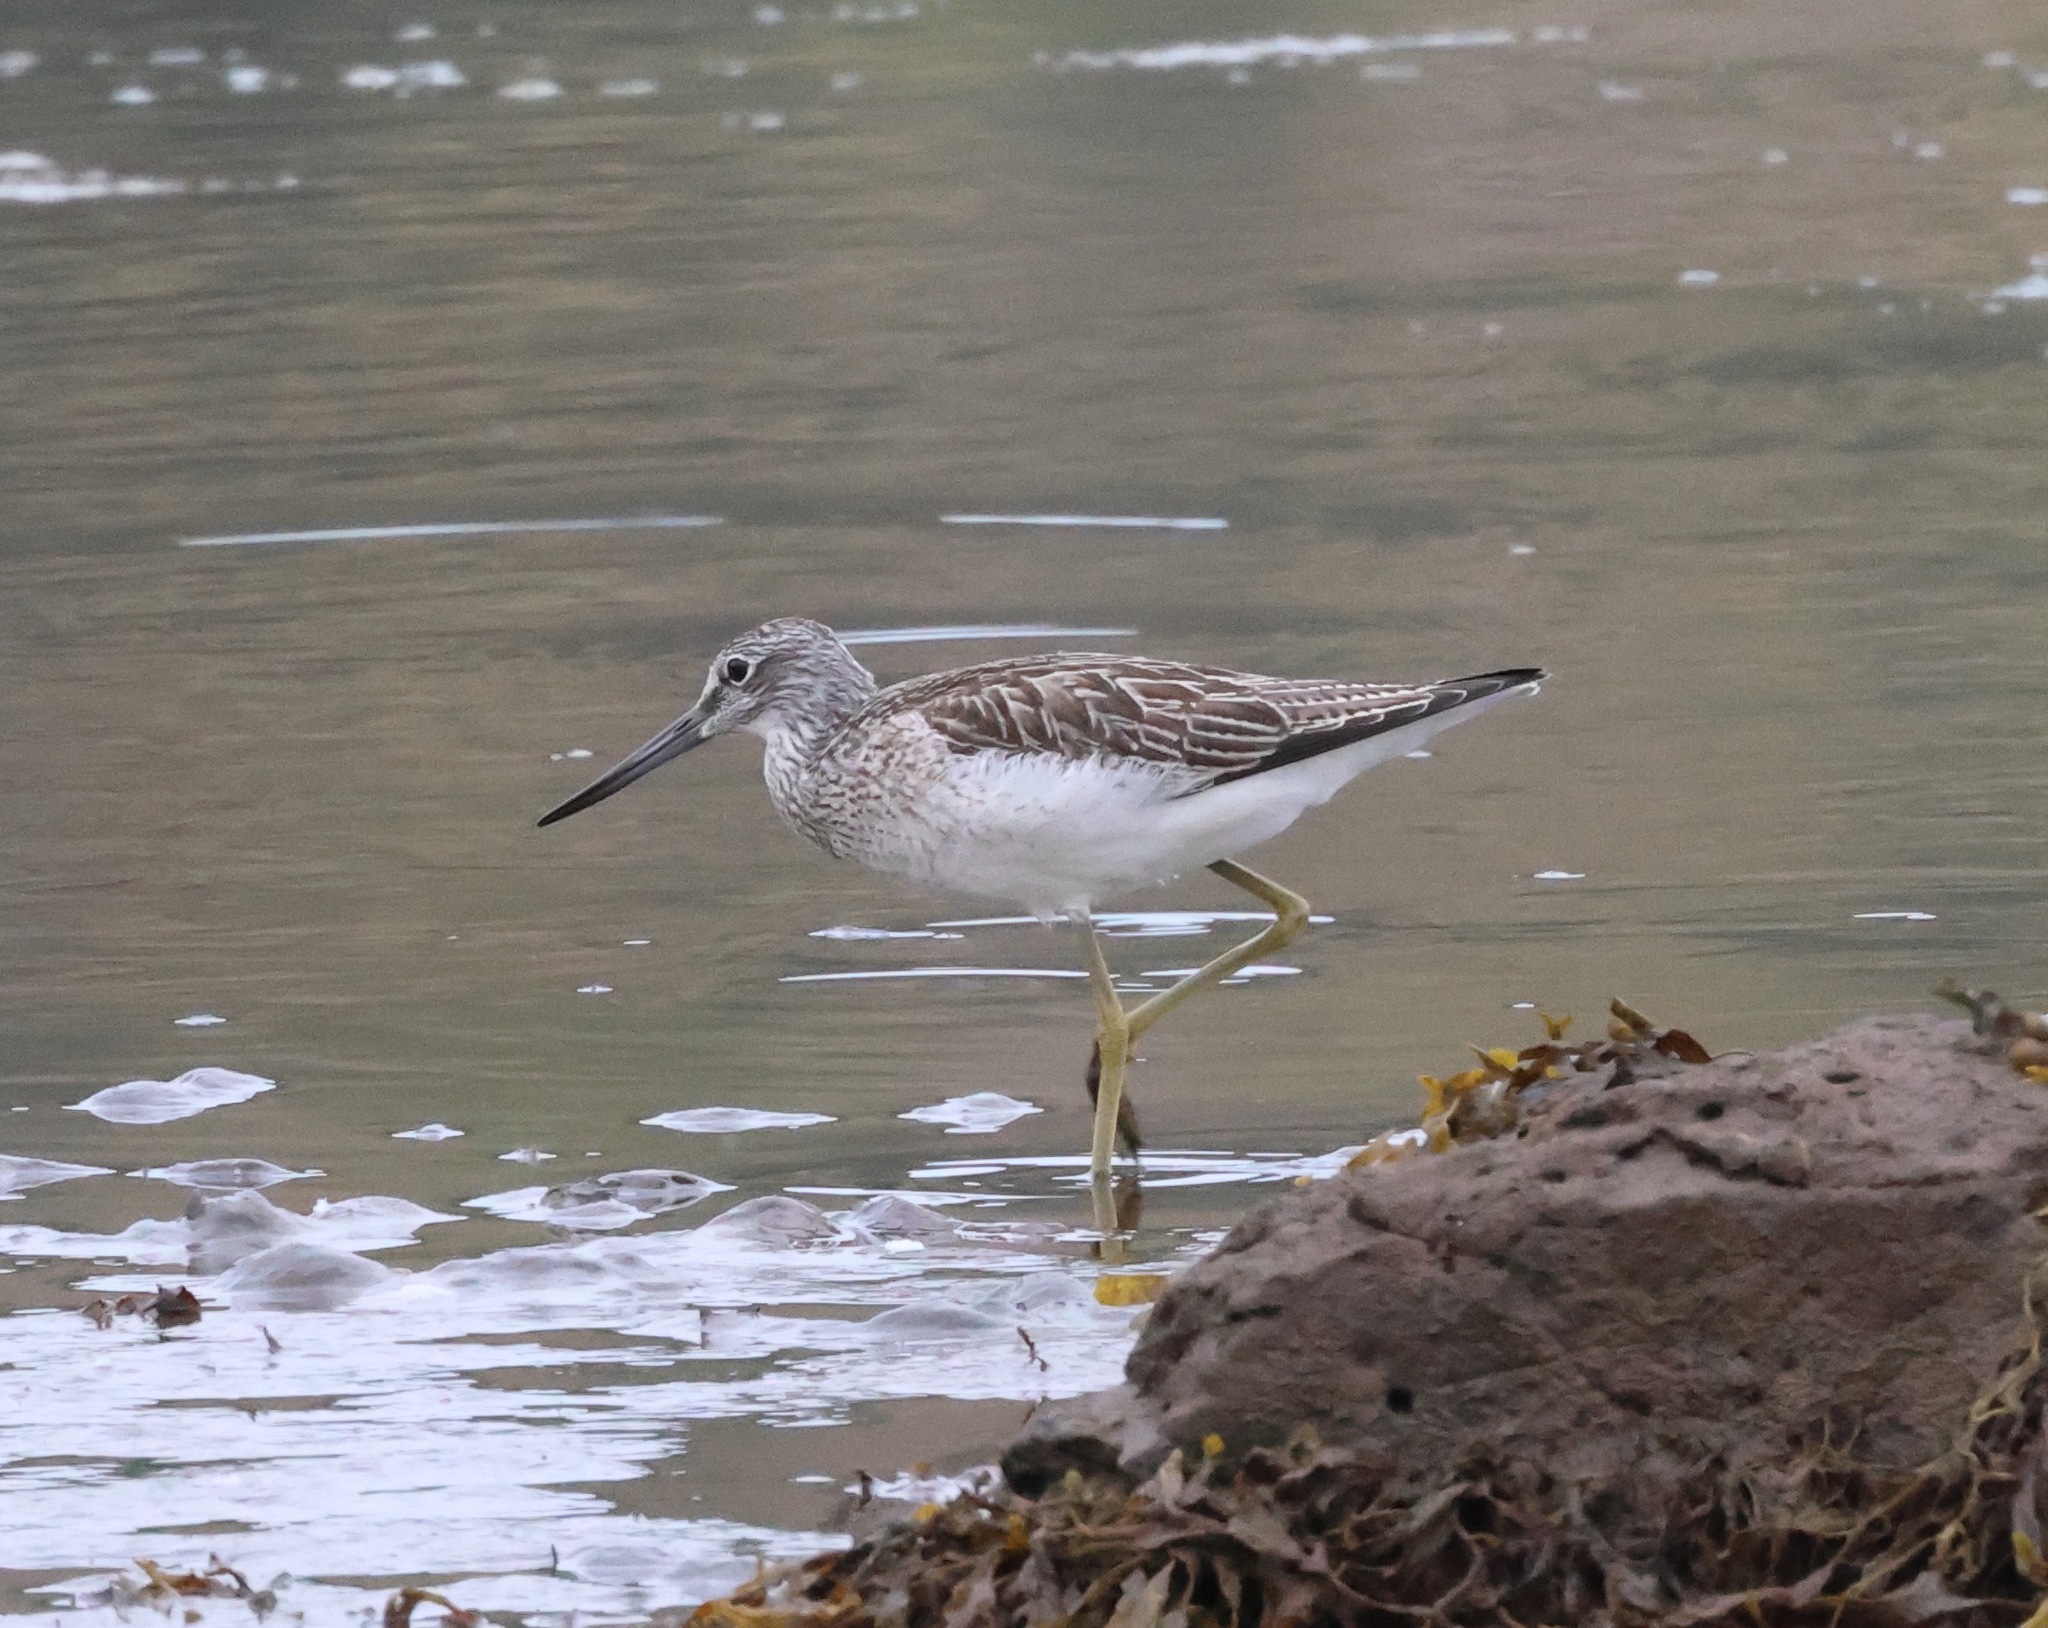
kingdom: Animalia
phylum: Chordata
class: Aves
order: Charadriiformes
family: Scolopacidae
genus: Tringa
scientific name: Tringa nebularia
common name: Common greenshank
